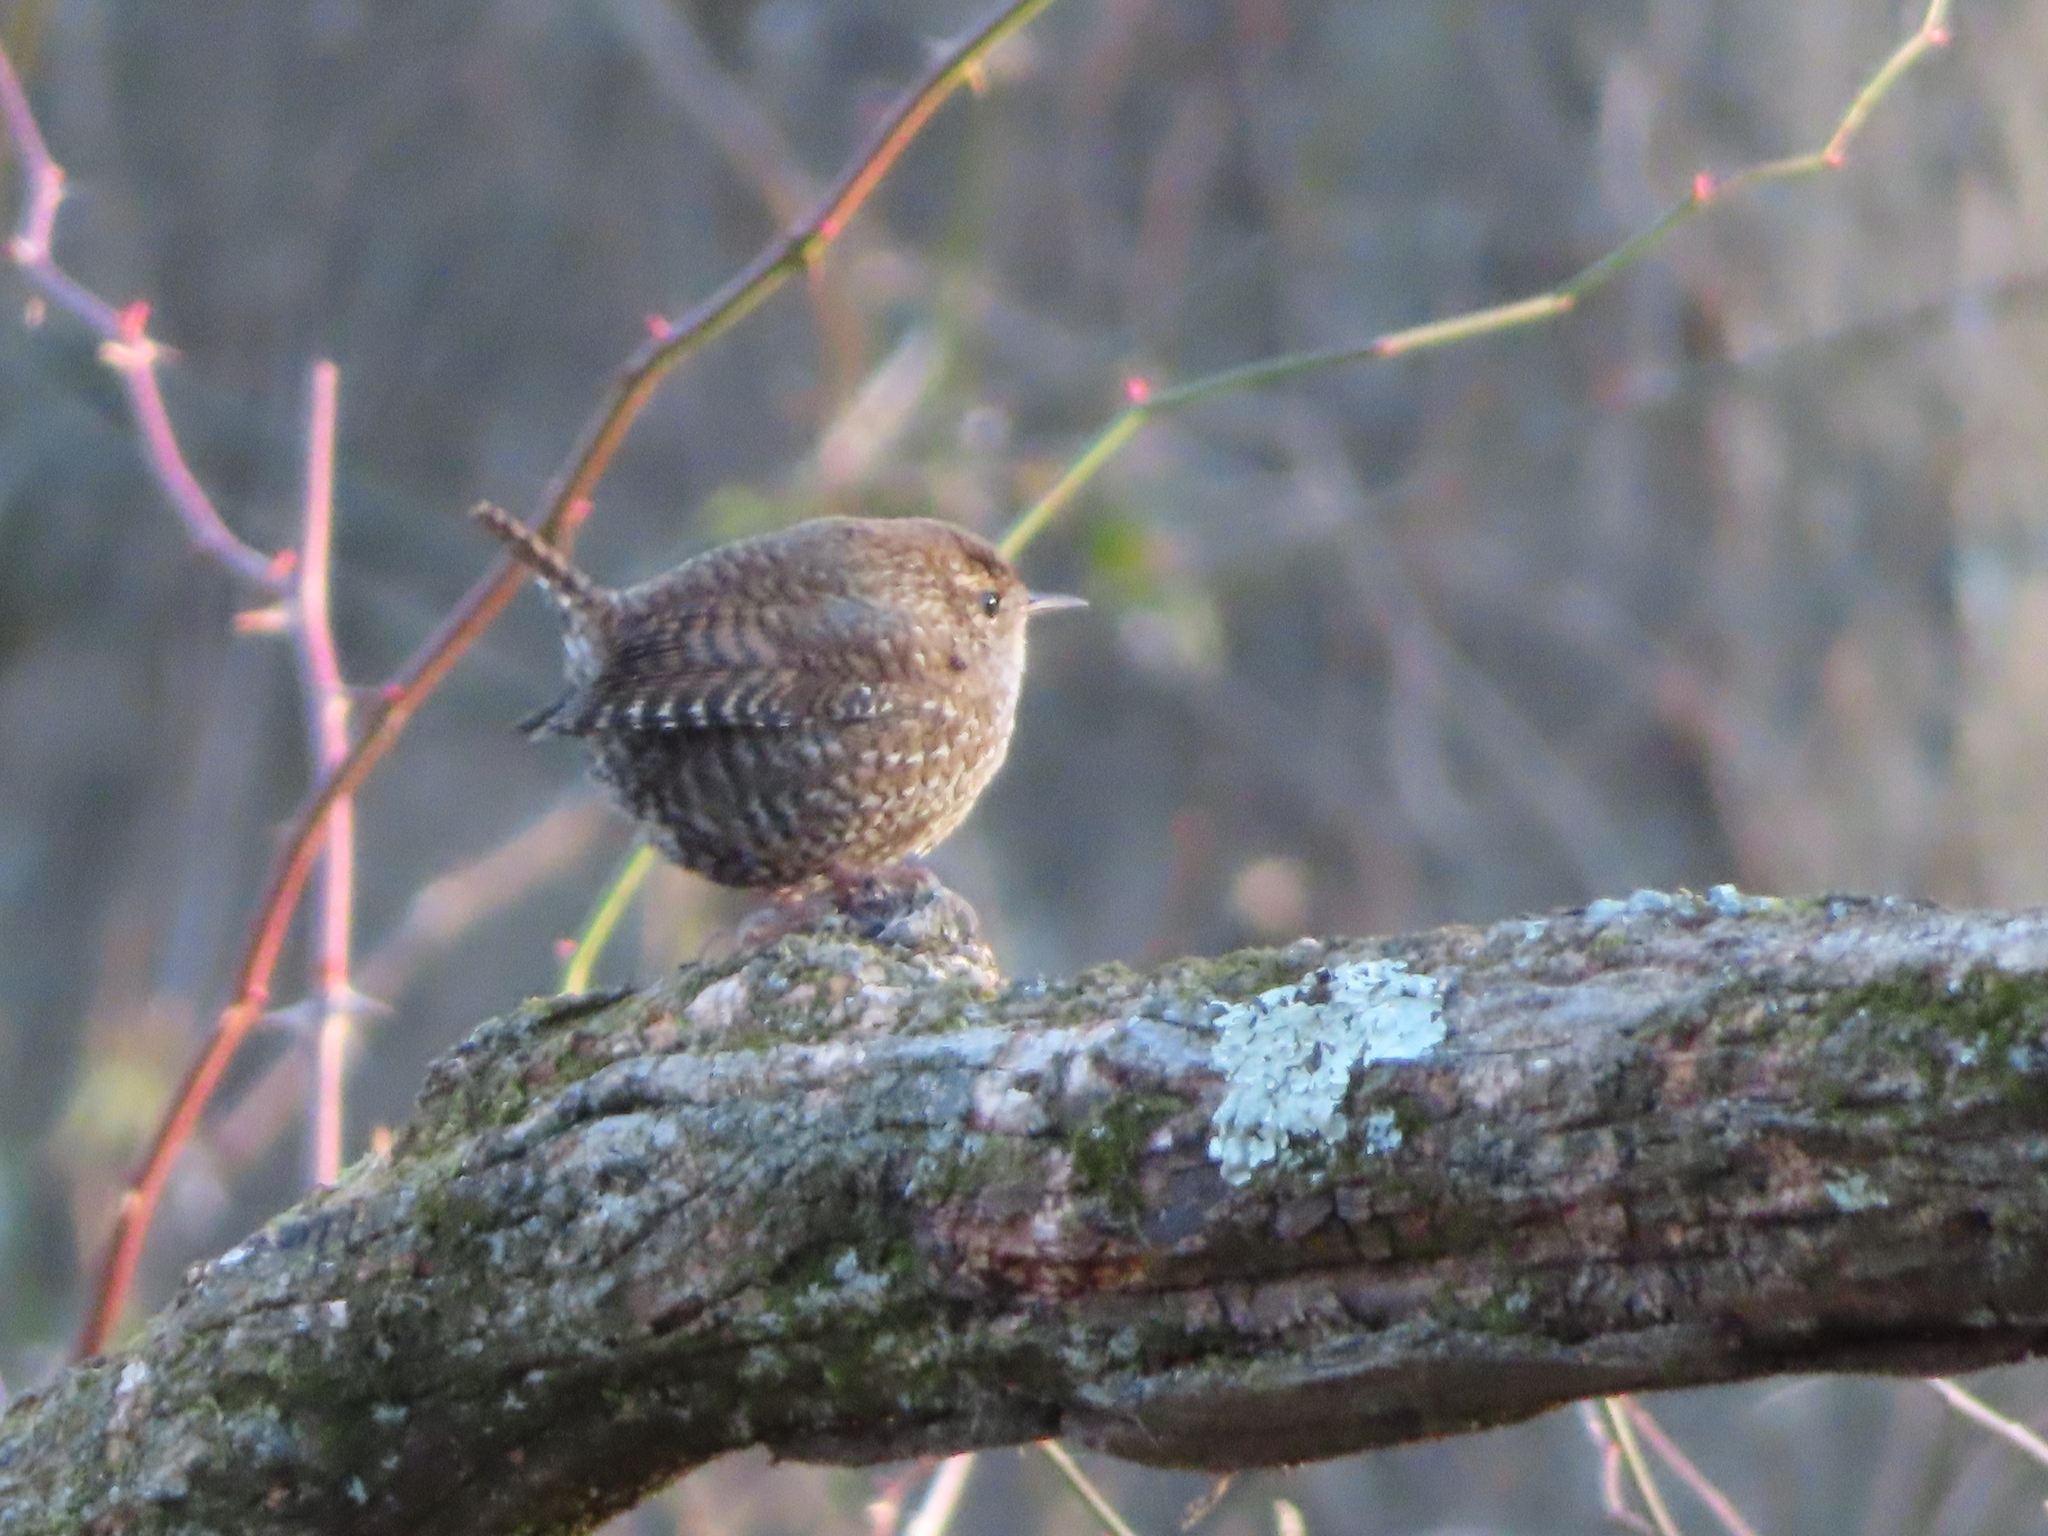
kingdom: Animalia
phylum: Chordata
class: Aves
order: Passeriformes
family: Troglodytidae
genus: Troglodytes
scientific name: Troglodytes hiemalis
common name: Winter wren
